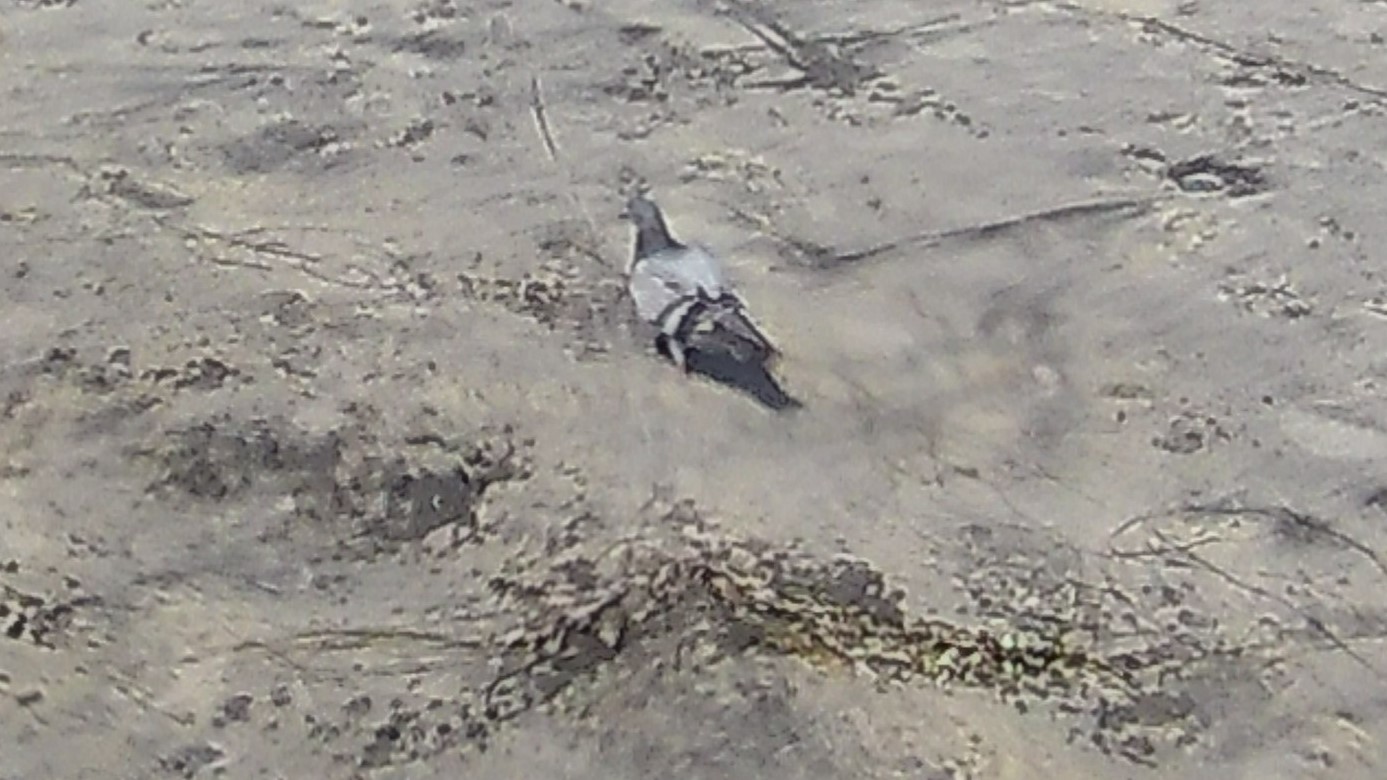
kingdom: Animalia
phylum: Chordata
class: Aves
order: Columbiformes
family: Columbidae
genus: Columba
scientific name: Columba livia
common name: Rock pigeon
